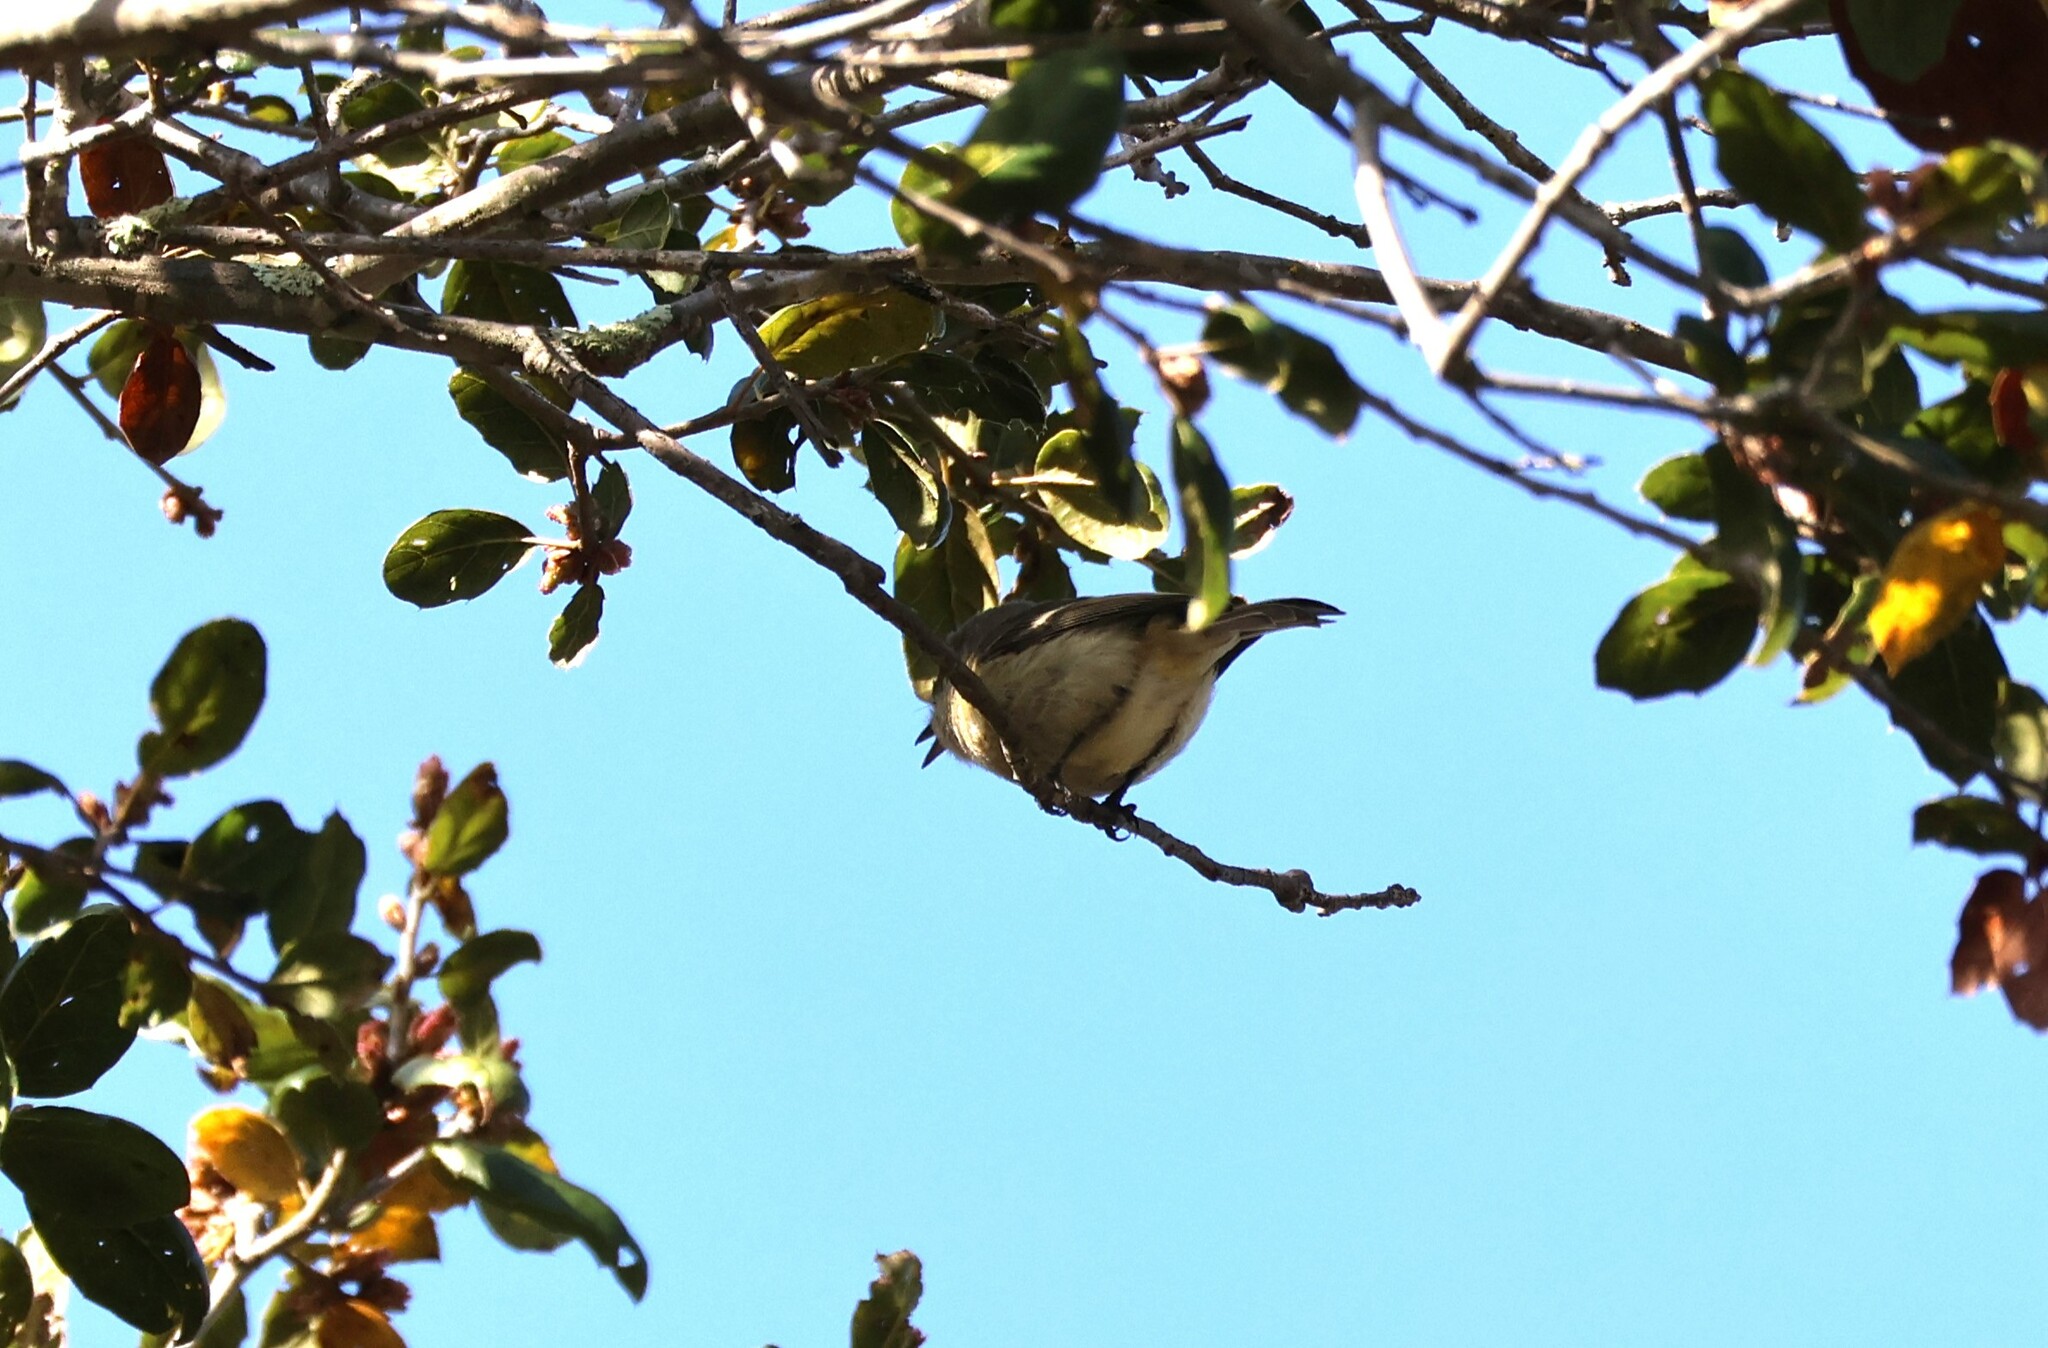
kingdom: Animalia
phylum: Chordata
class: Aves
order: Passeriformes
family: Regulidae
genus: Regulus
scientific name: Regulus calendula
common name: Ruby-crowned kinglet
